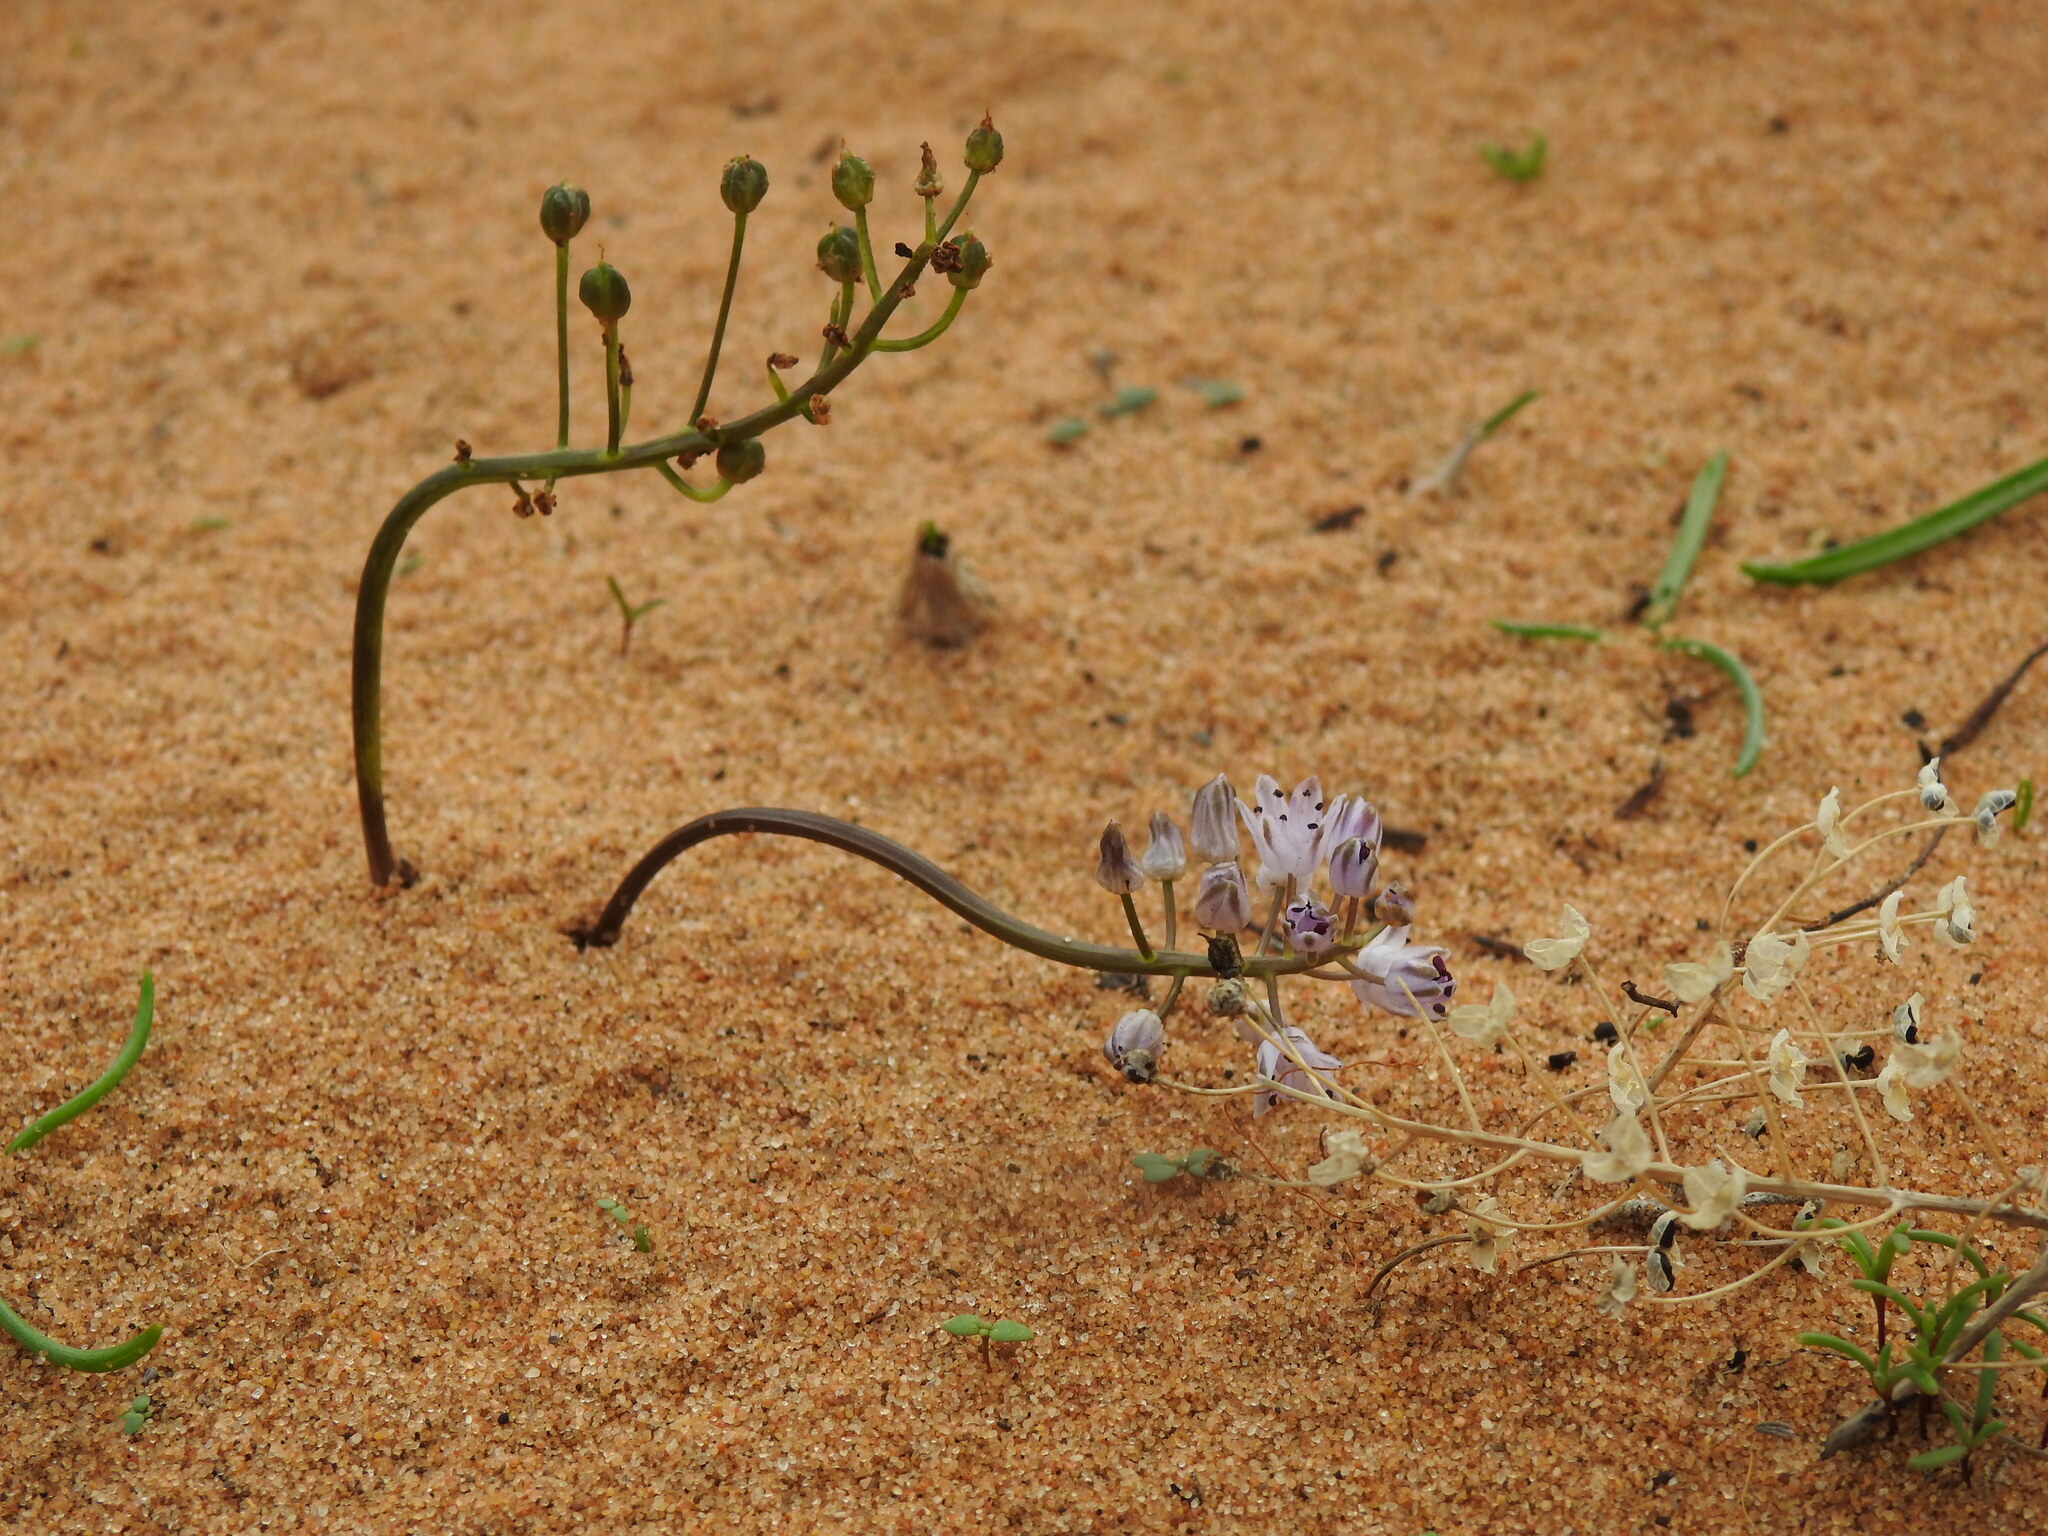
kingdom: Plantae
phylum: Tracheophyta
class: Liliopsida
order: Asparagales
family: Asparagaceae
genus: Prospero
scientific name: Prospero autumnale
